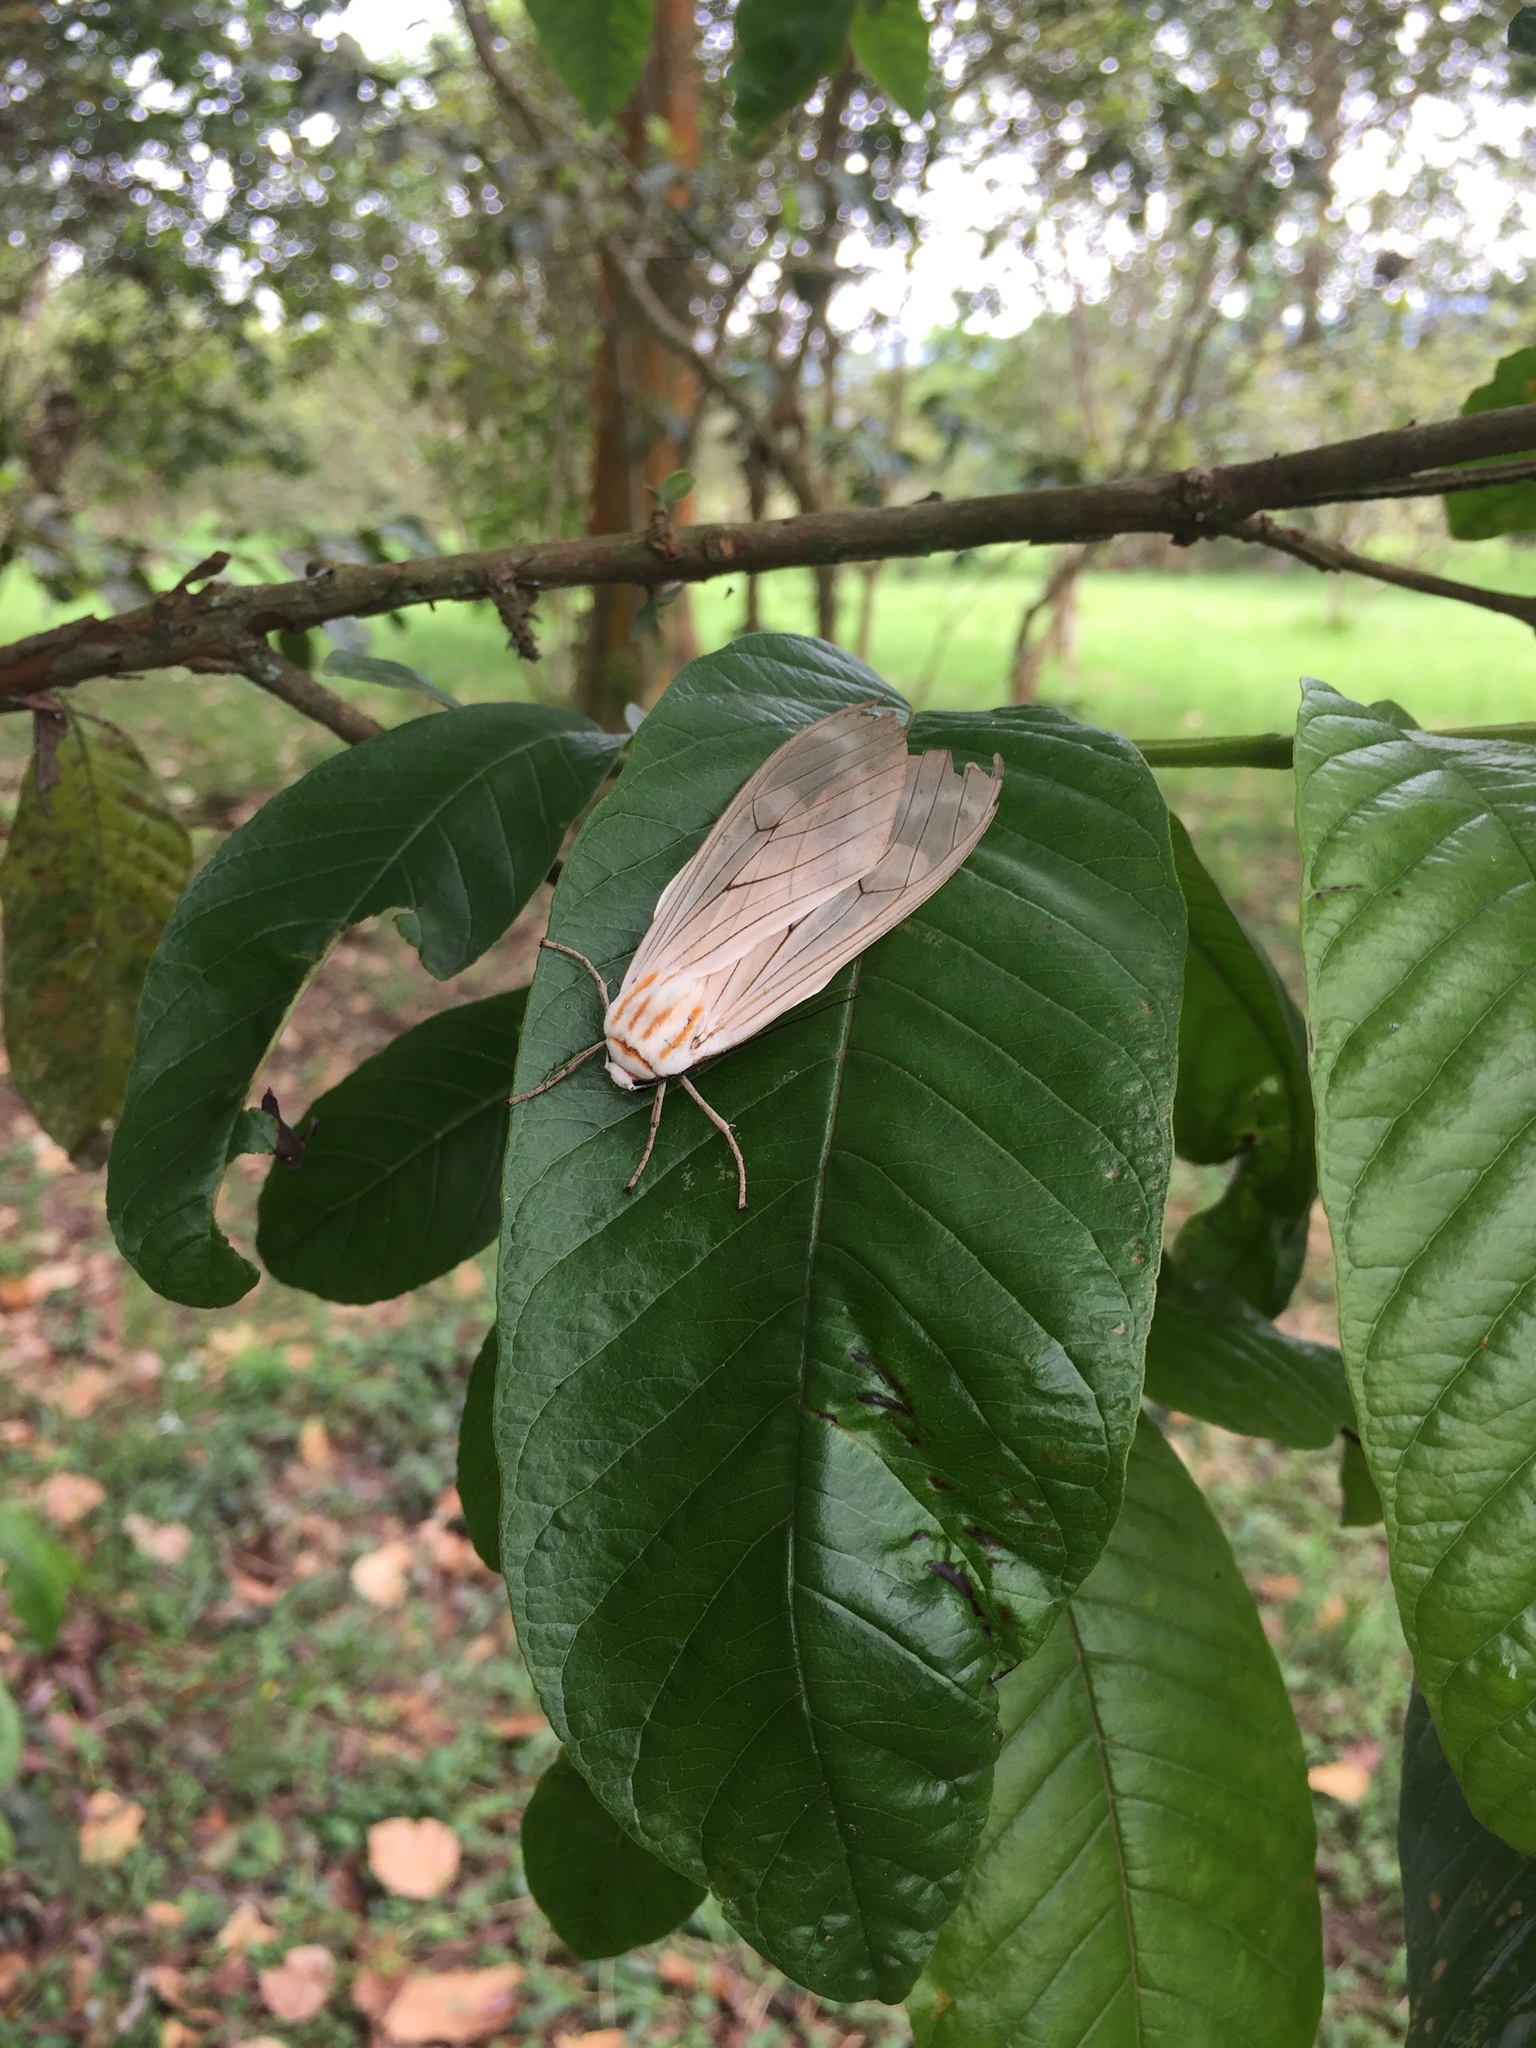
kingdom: Animalia
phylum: Arthropoda
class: Insecta
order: Lepidoptera
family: Erebidae
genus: Amastus
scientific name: Amastus aconia
